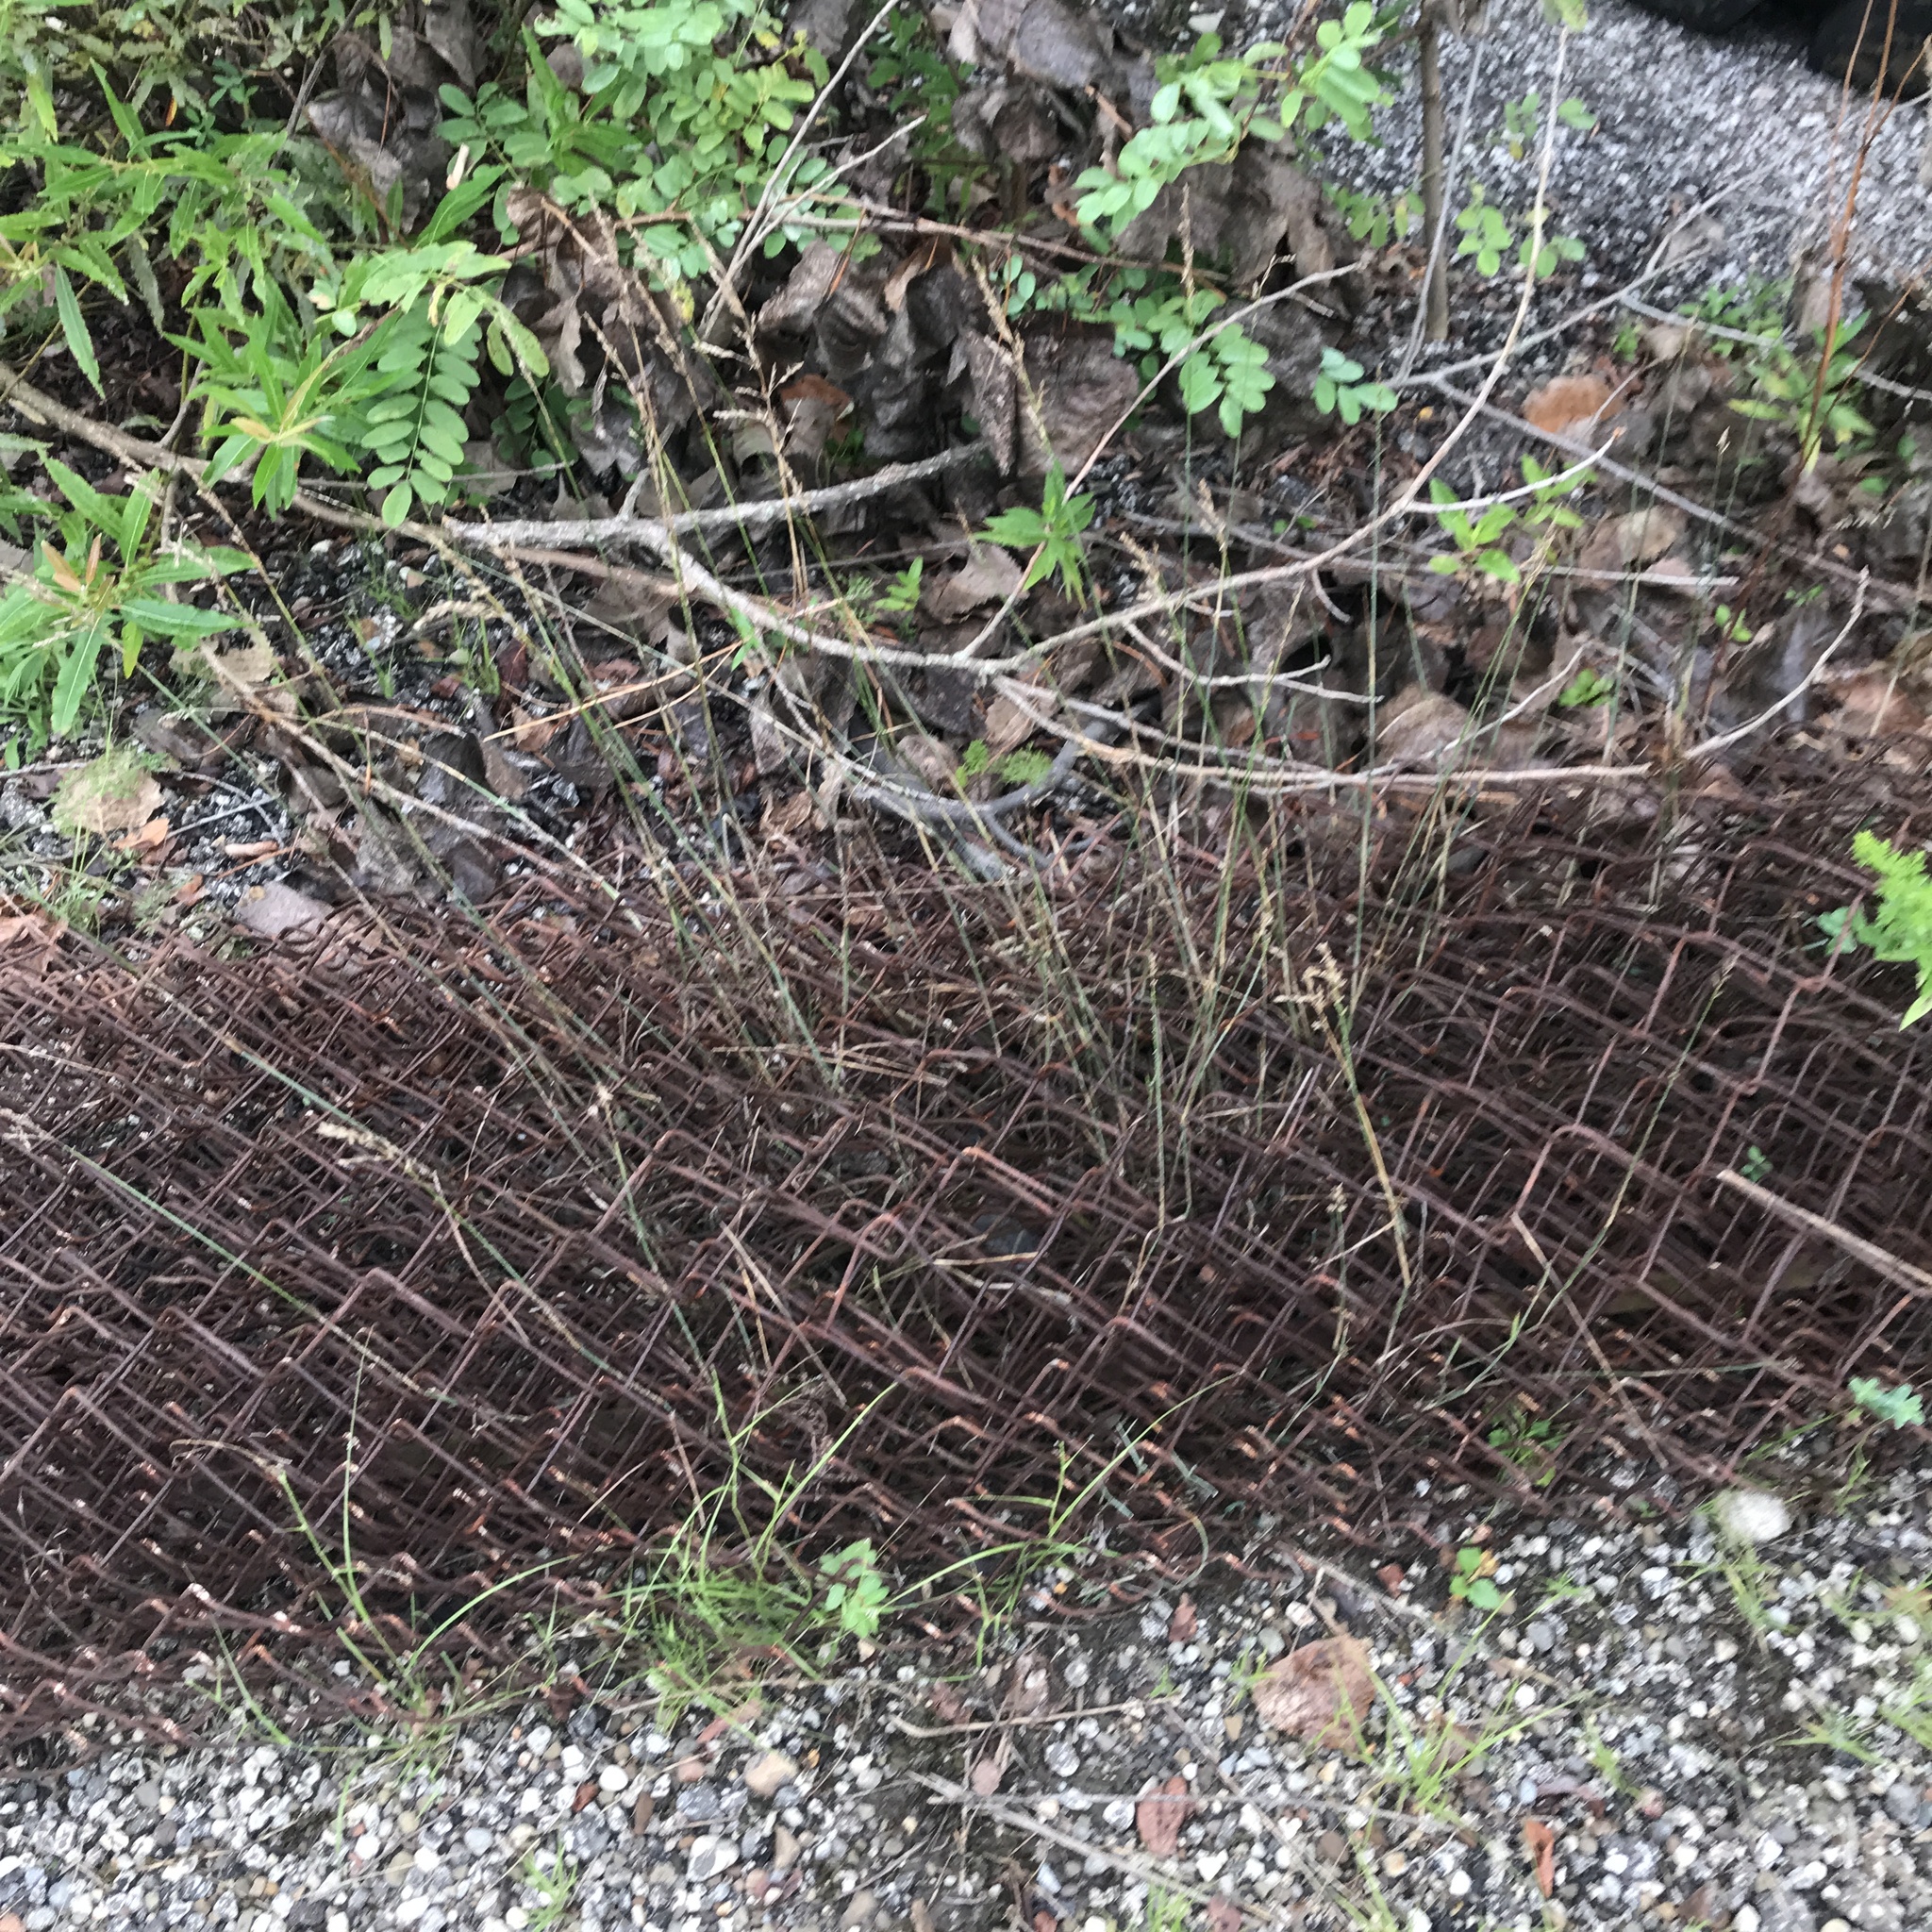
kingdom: Plantae
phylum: Tracheophyta
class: Liliopsida
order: Poales
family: Poaceae
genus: Poa
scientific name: Poa compressa
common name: Canada bluegrass
